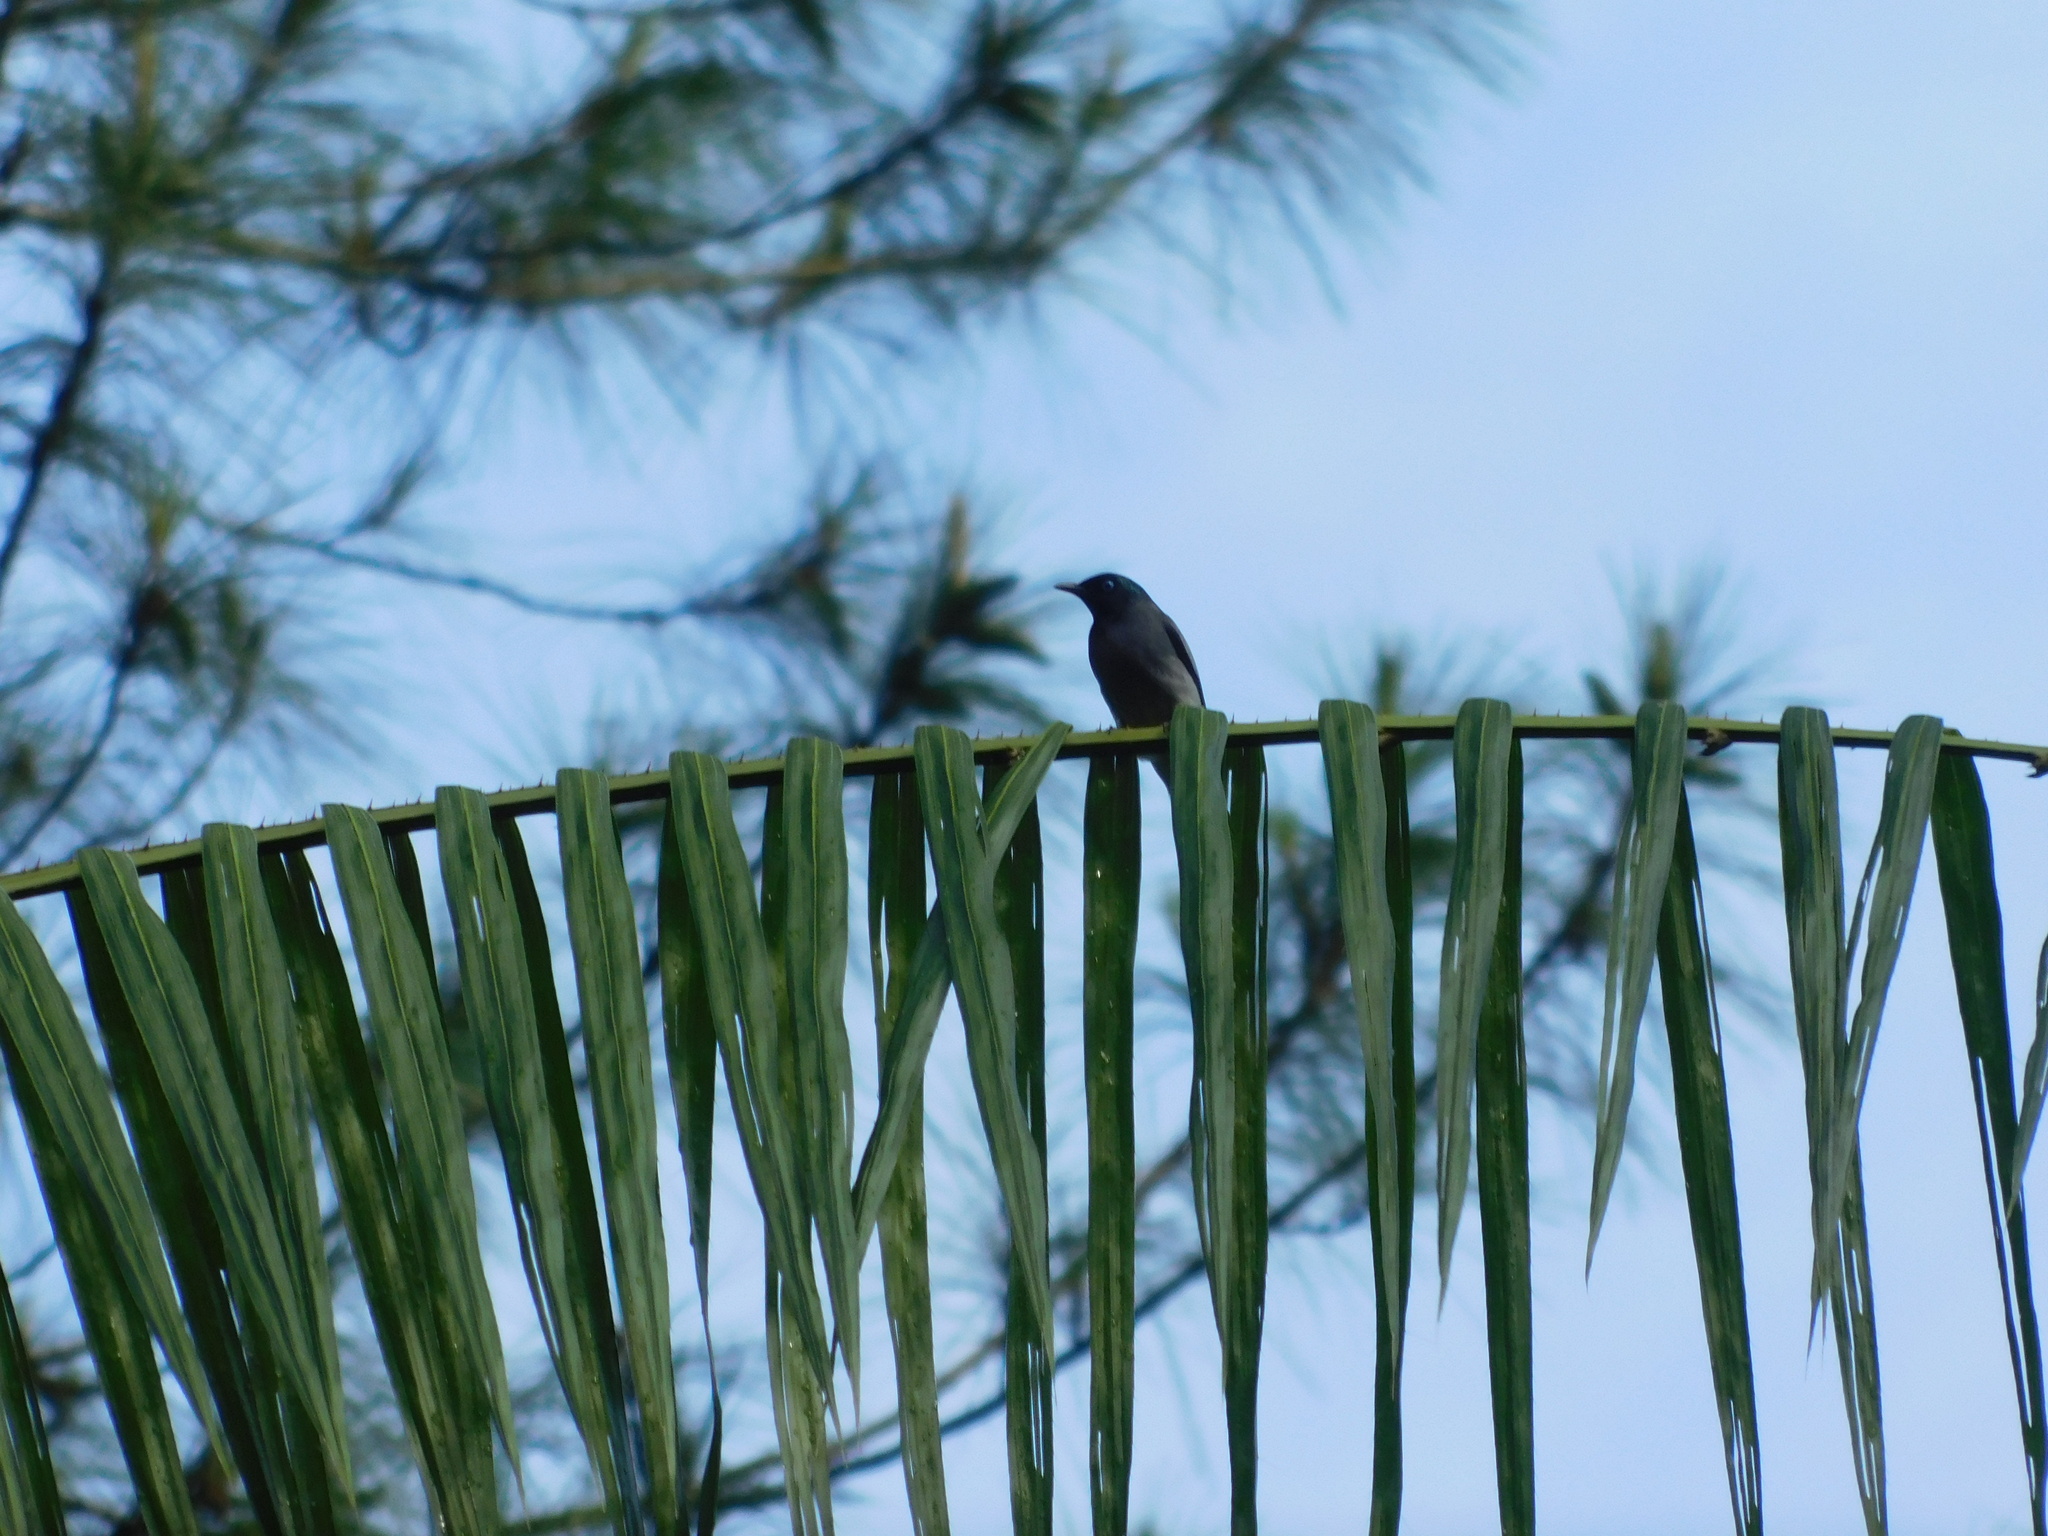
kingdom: Animalia
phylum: Chordata
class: Aves
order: Passeriformes
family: Pycnonotidae
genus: Microtarsus
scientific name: Microtarsus
